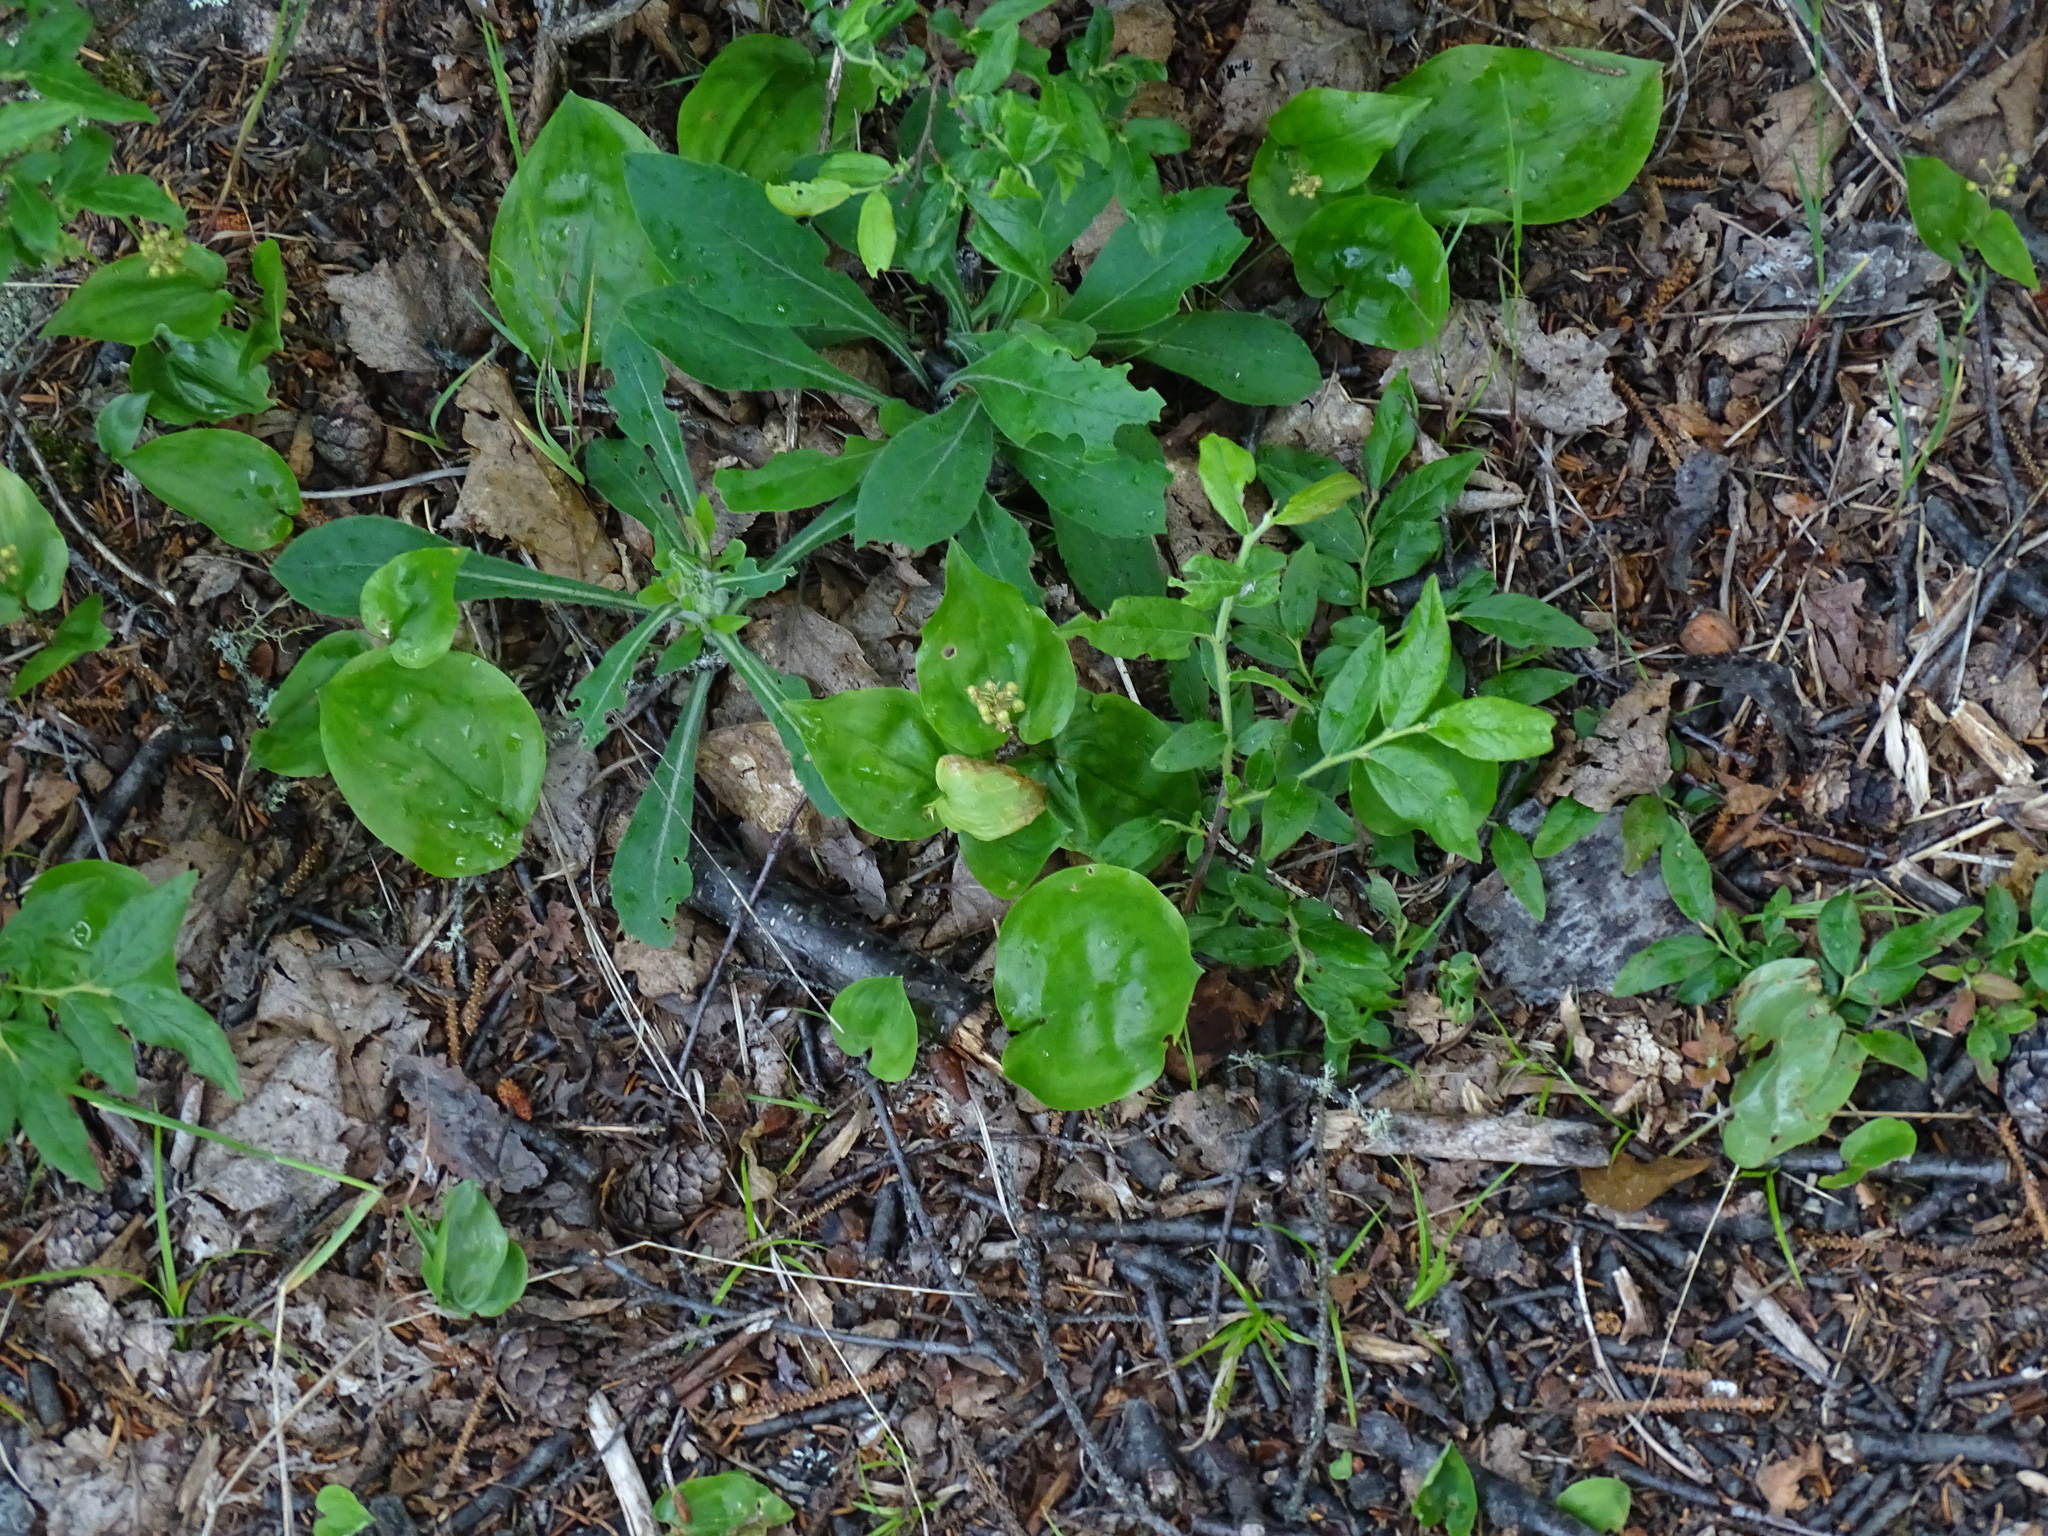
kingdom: Plantae
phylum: Tracheophyta
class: Liliopsida
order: Asparagales
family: Asparagaceae
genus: Maianthemum
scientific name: Maianthemum canadense
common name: False lily-of-the-valley
